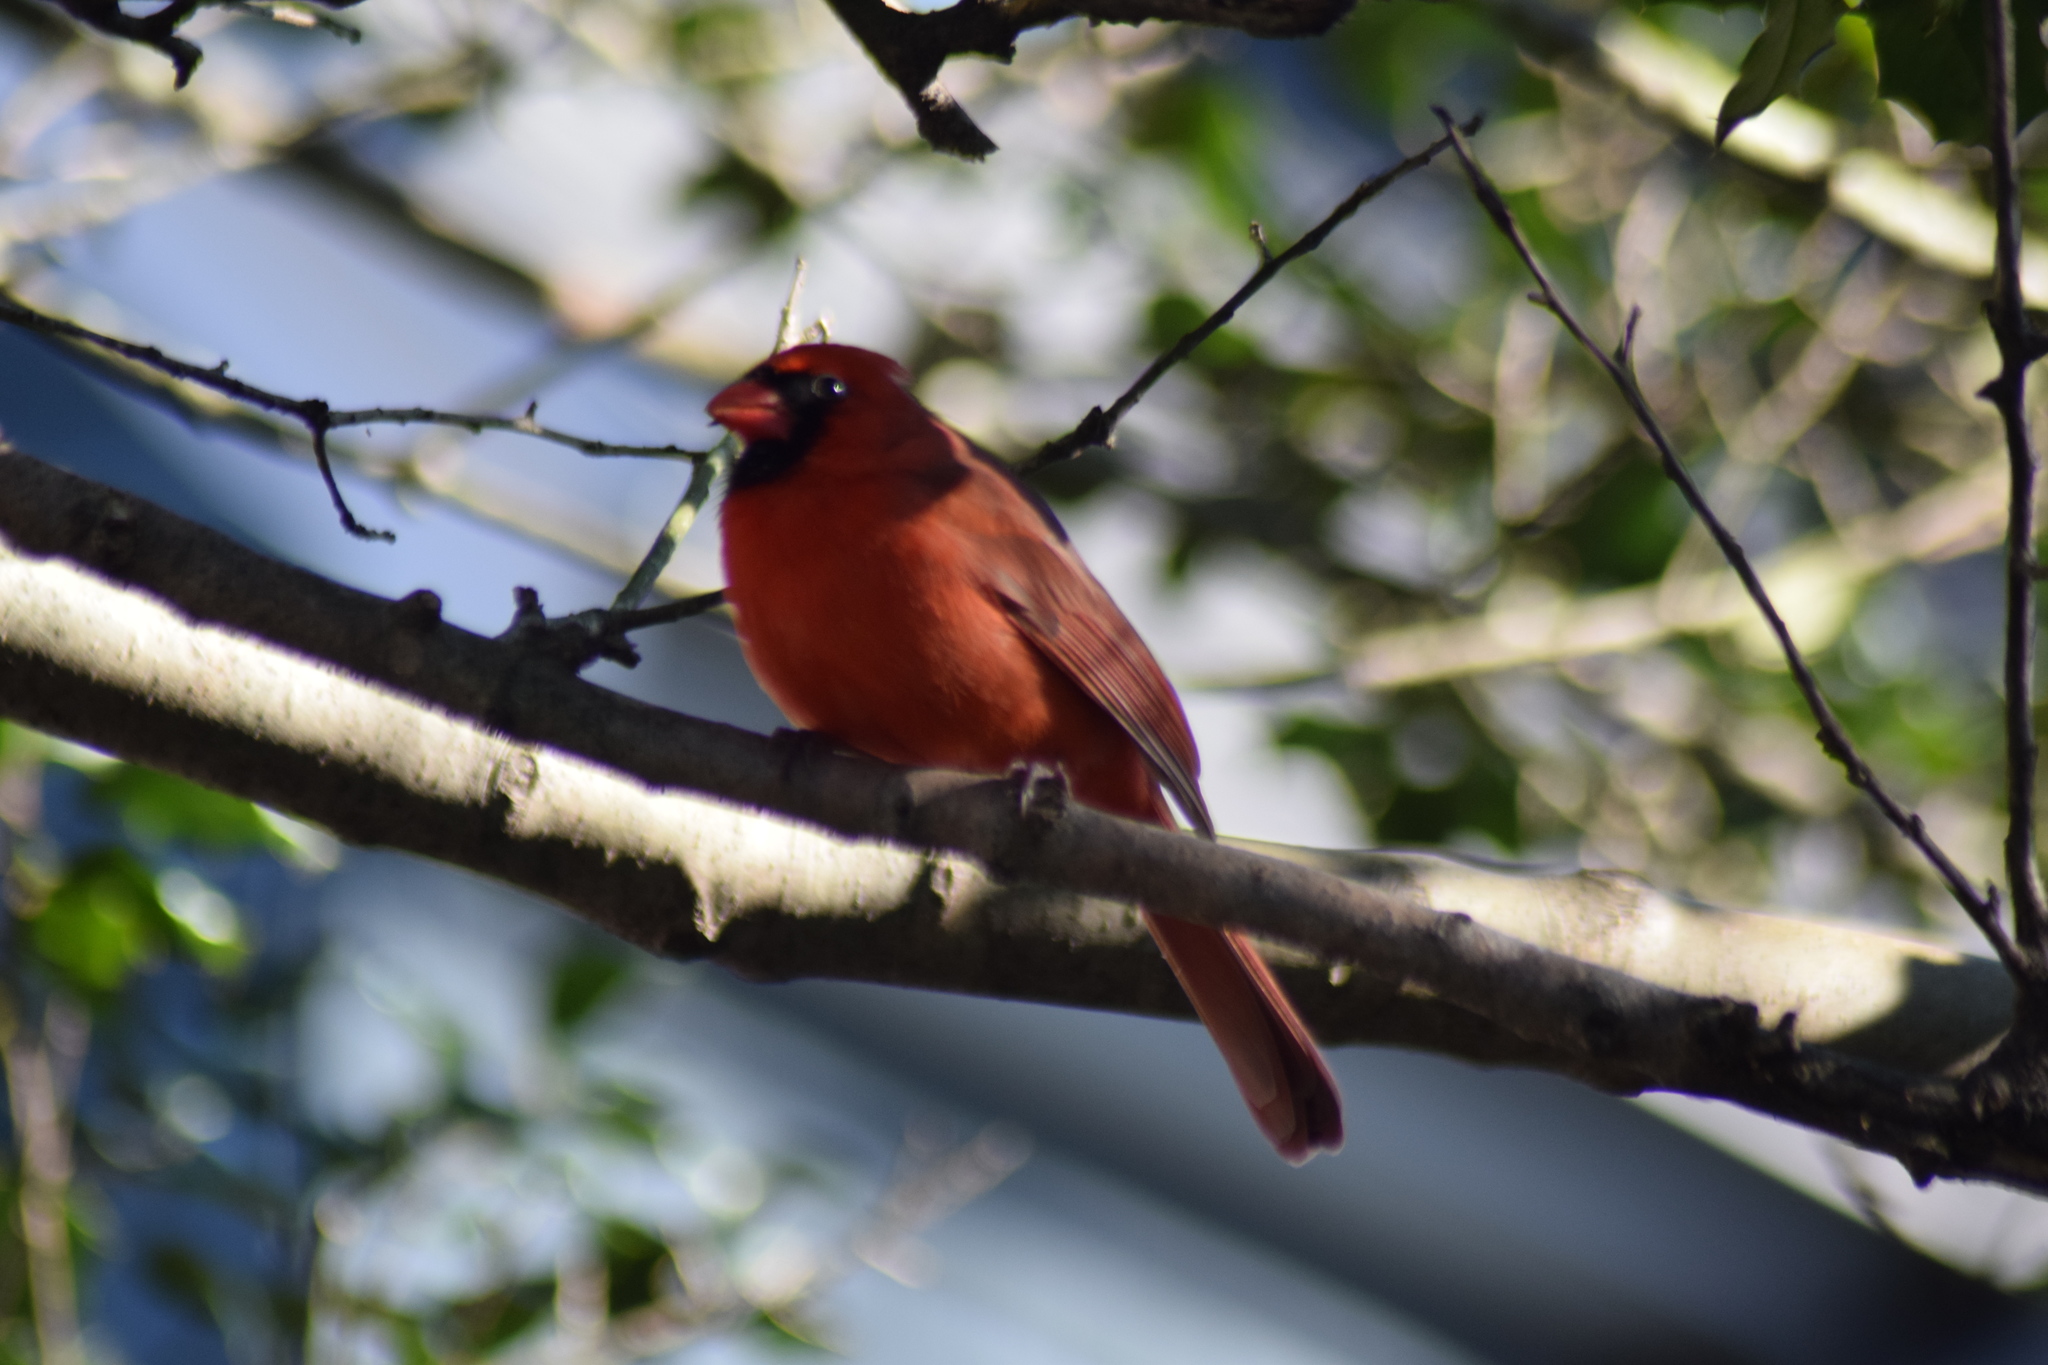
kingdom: Animalia
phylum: Chordata
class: Aves
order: Passeriformes
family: Cardinalidae
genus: Cardinalis
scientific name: Cardinalis cardinalis
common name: Northern cardinal
